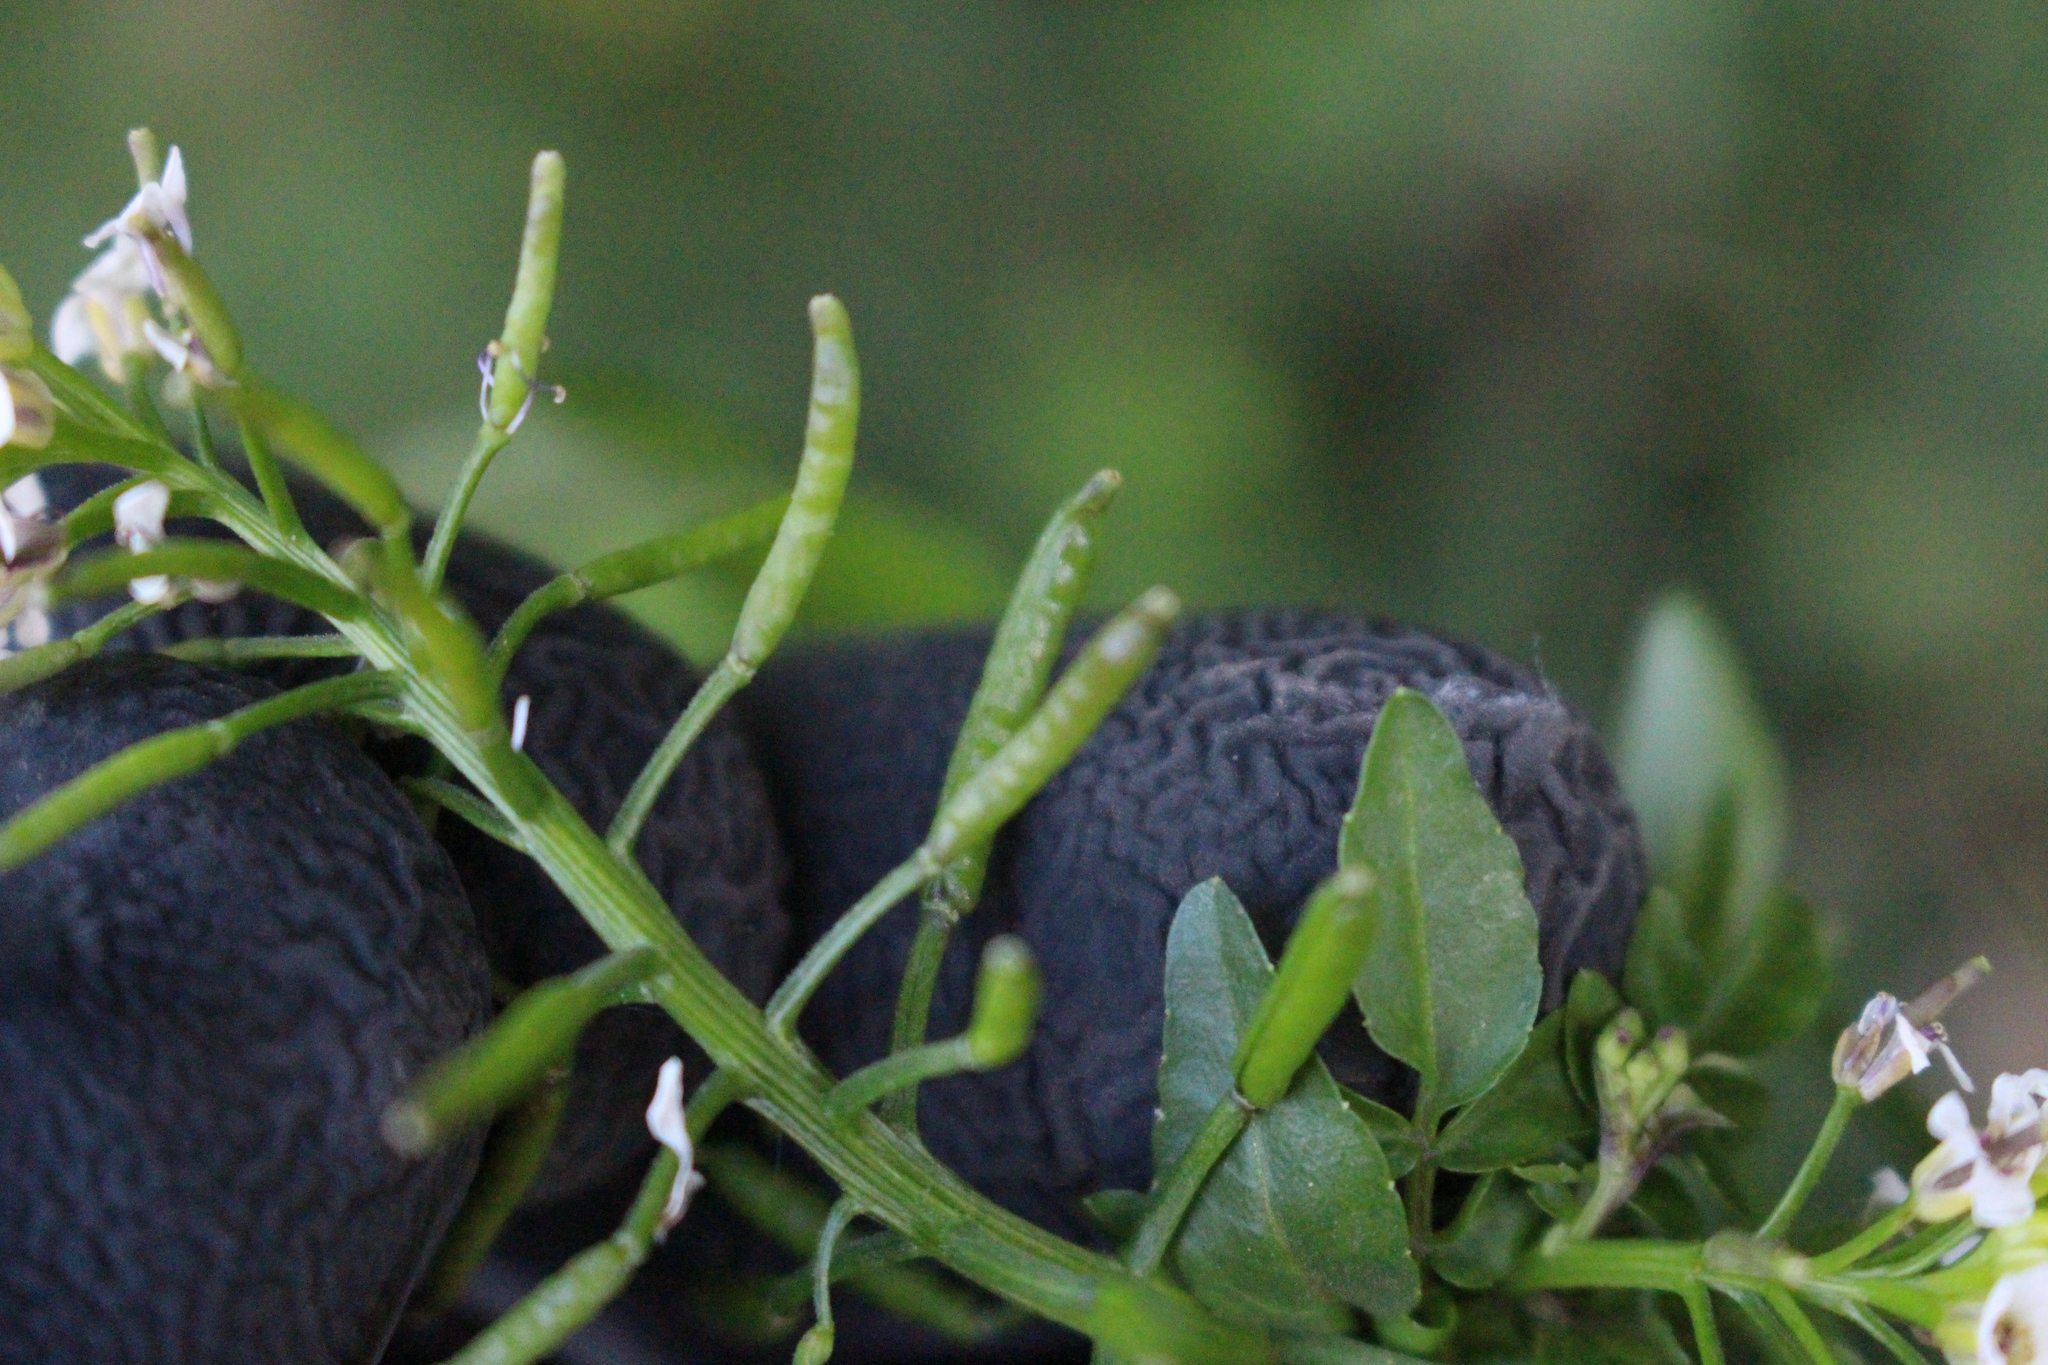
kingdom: Plantae
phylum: Tracheophyta
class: Magnoliopsida
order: Brassicales
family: Brassicaceae
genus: Nasturtium
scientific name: Nasturtium officinale
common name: Watercress
